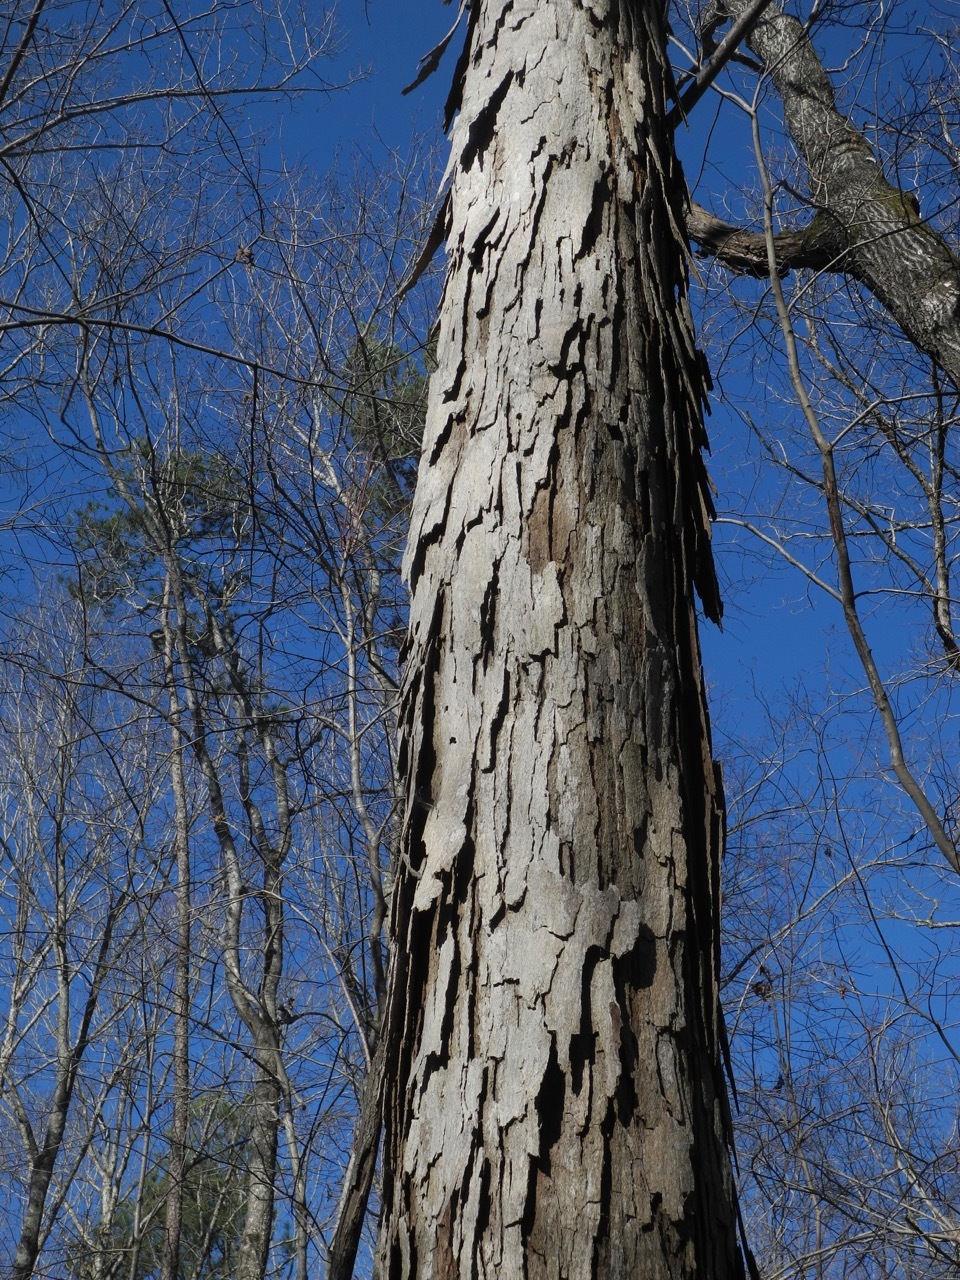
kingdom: Plantae
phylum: Tracheophyta
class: Magnoliopsida
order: Fagales
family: Juglandaceae
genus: Carya
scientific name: Carya ovata
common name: Shagbark hickory
